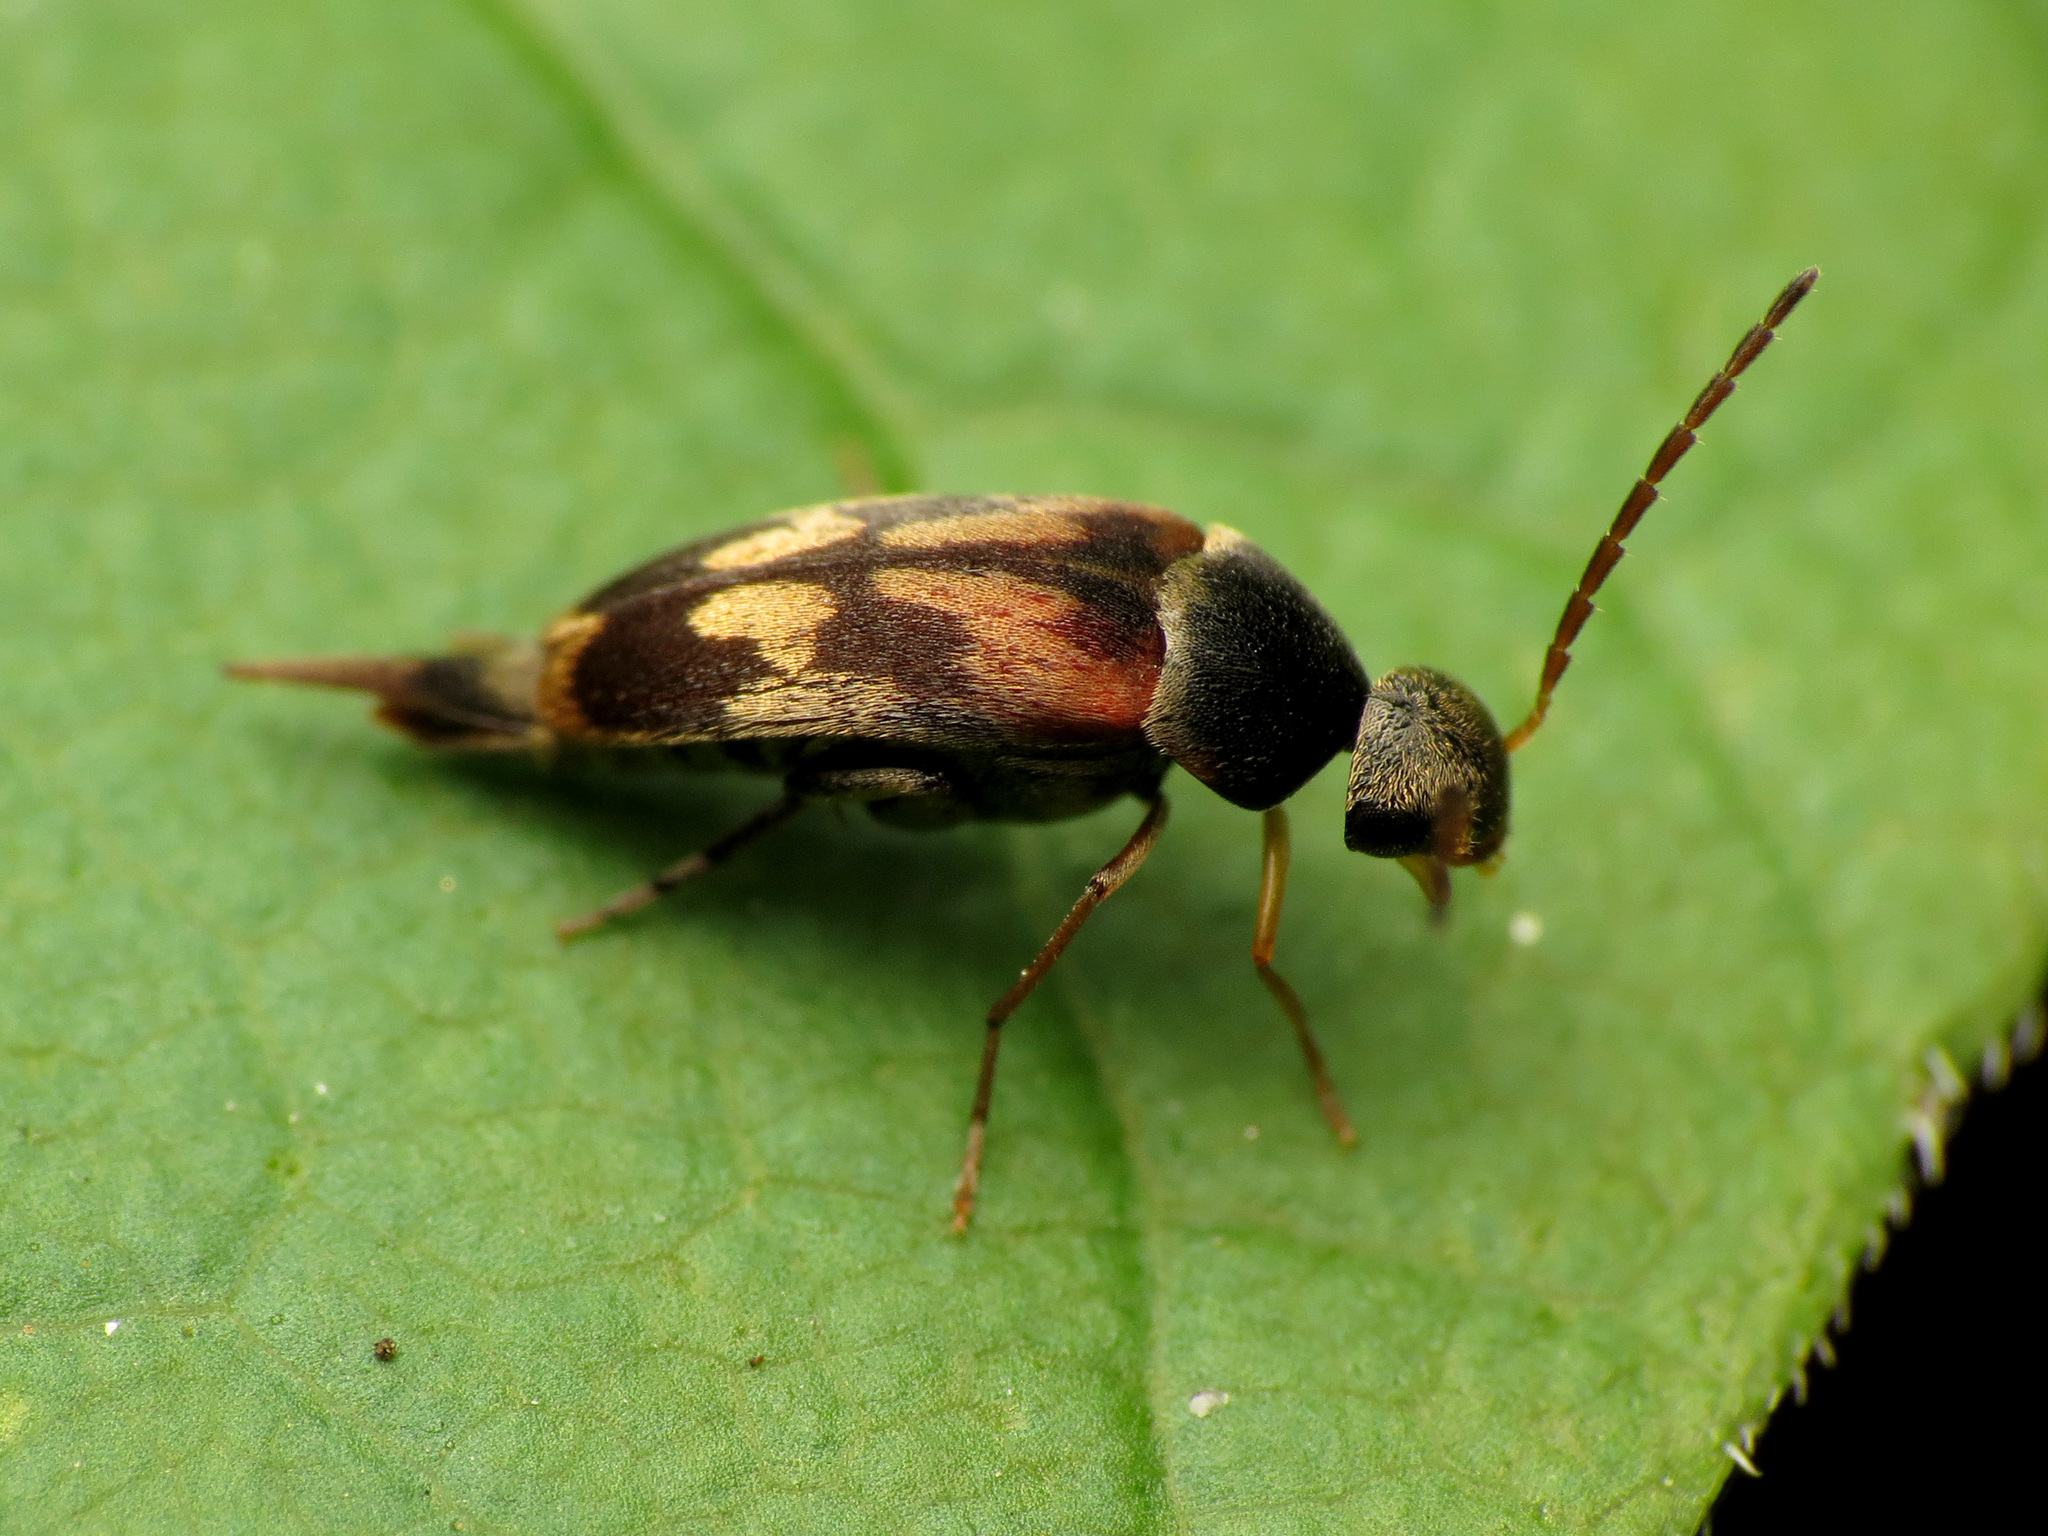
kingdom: Animalia
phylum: Arthropoda
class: Insecta
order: Coleoptera
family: Mordellidae
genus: Falsomordellistena
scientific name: Falsomordellistena bihamata
